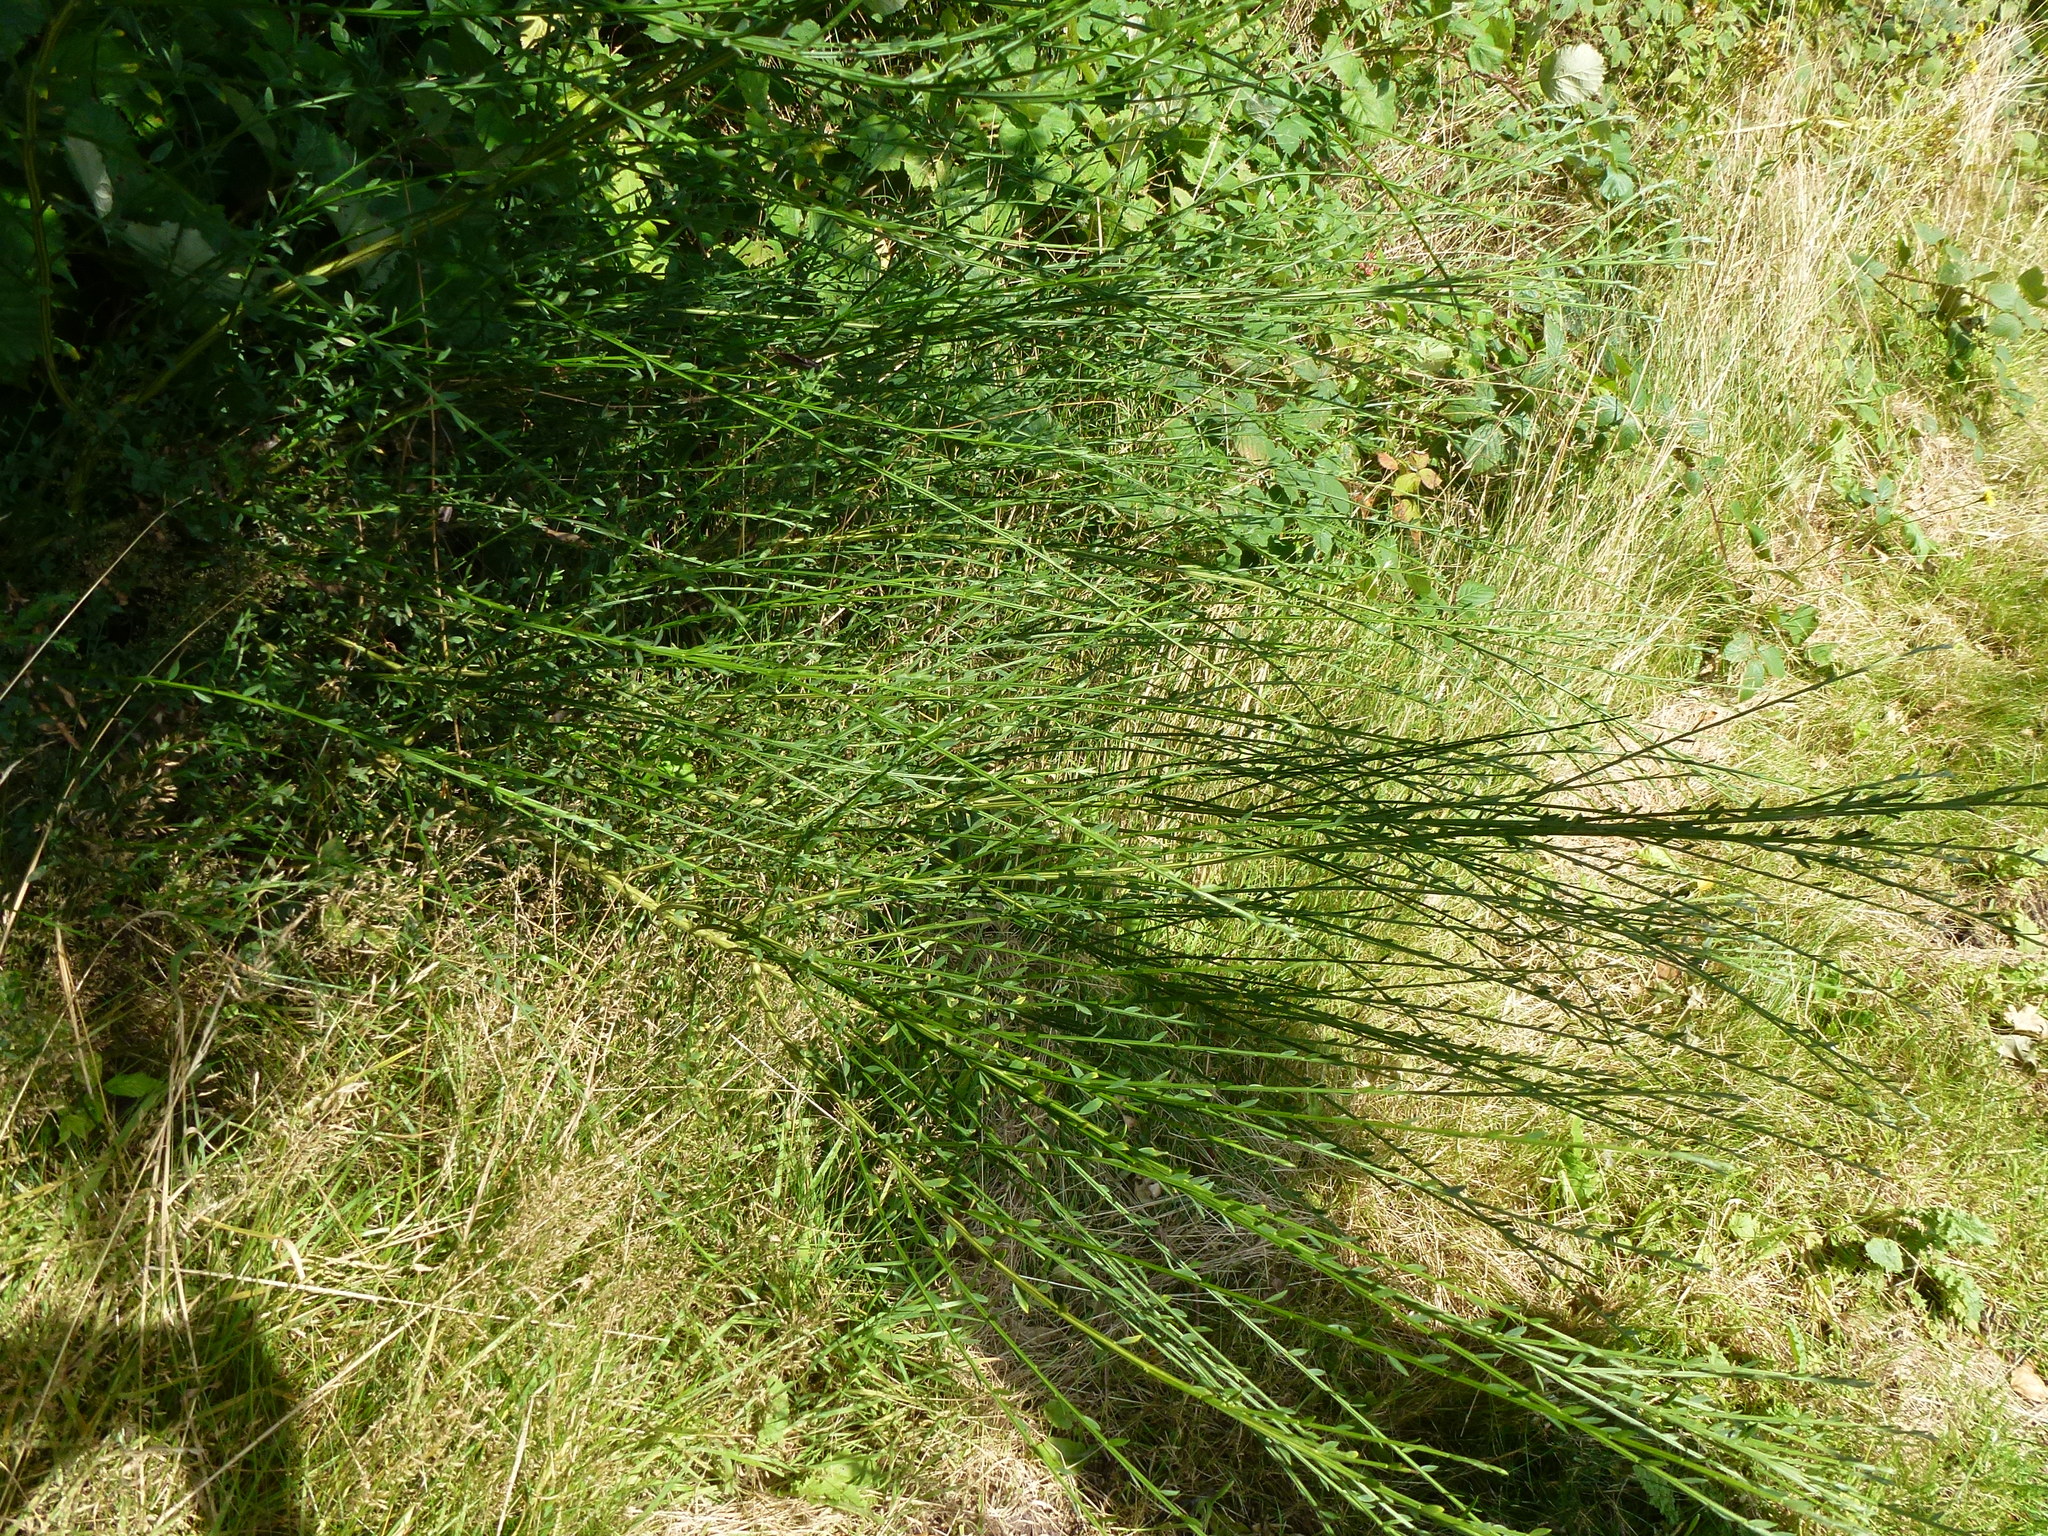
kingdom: Plantae
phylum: Tracheophyta
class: Magnoliopsida
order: Fabales
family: Fabaceae
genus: Cytisus
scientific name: Cytisus scoparius
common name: Scotch broom
